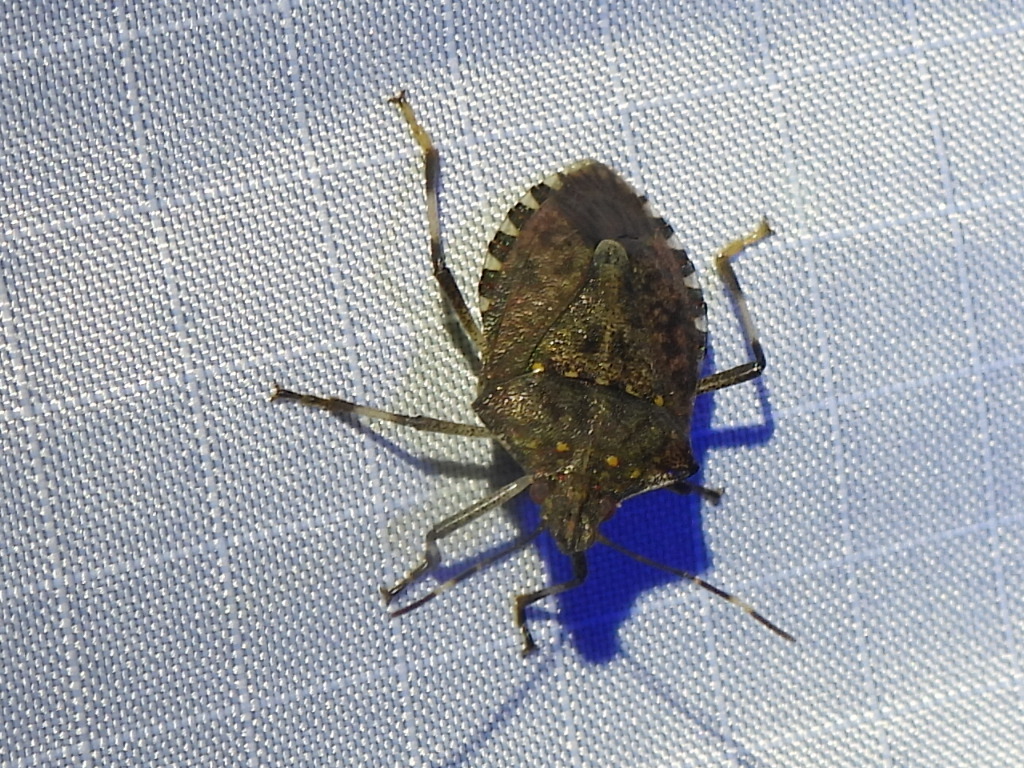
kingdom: Animalia
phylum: Arthropoda
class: Insecta
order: Hemiptera
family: Pentatomidae
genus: Halyomorpha
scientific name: Halyomorpha halys
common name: Brown marmorated stink bug
